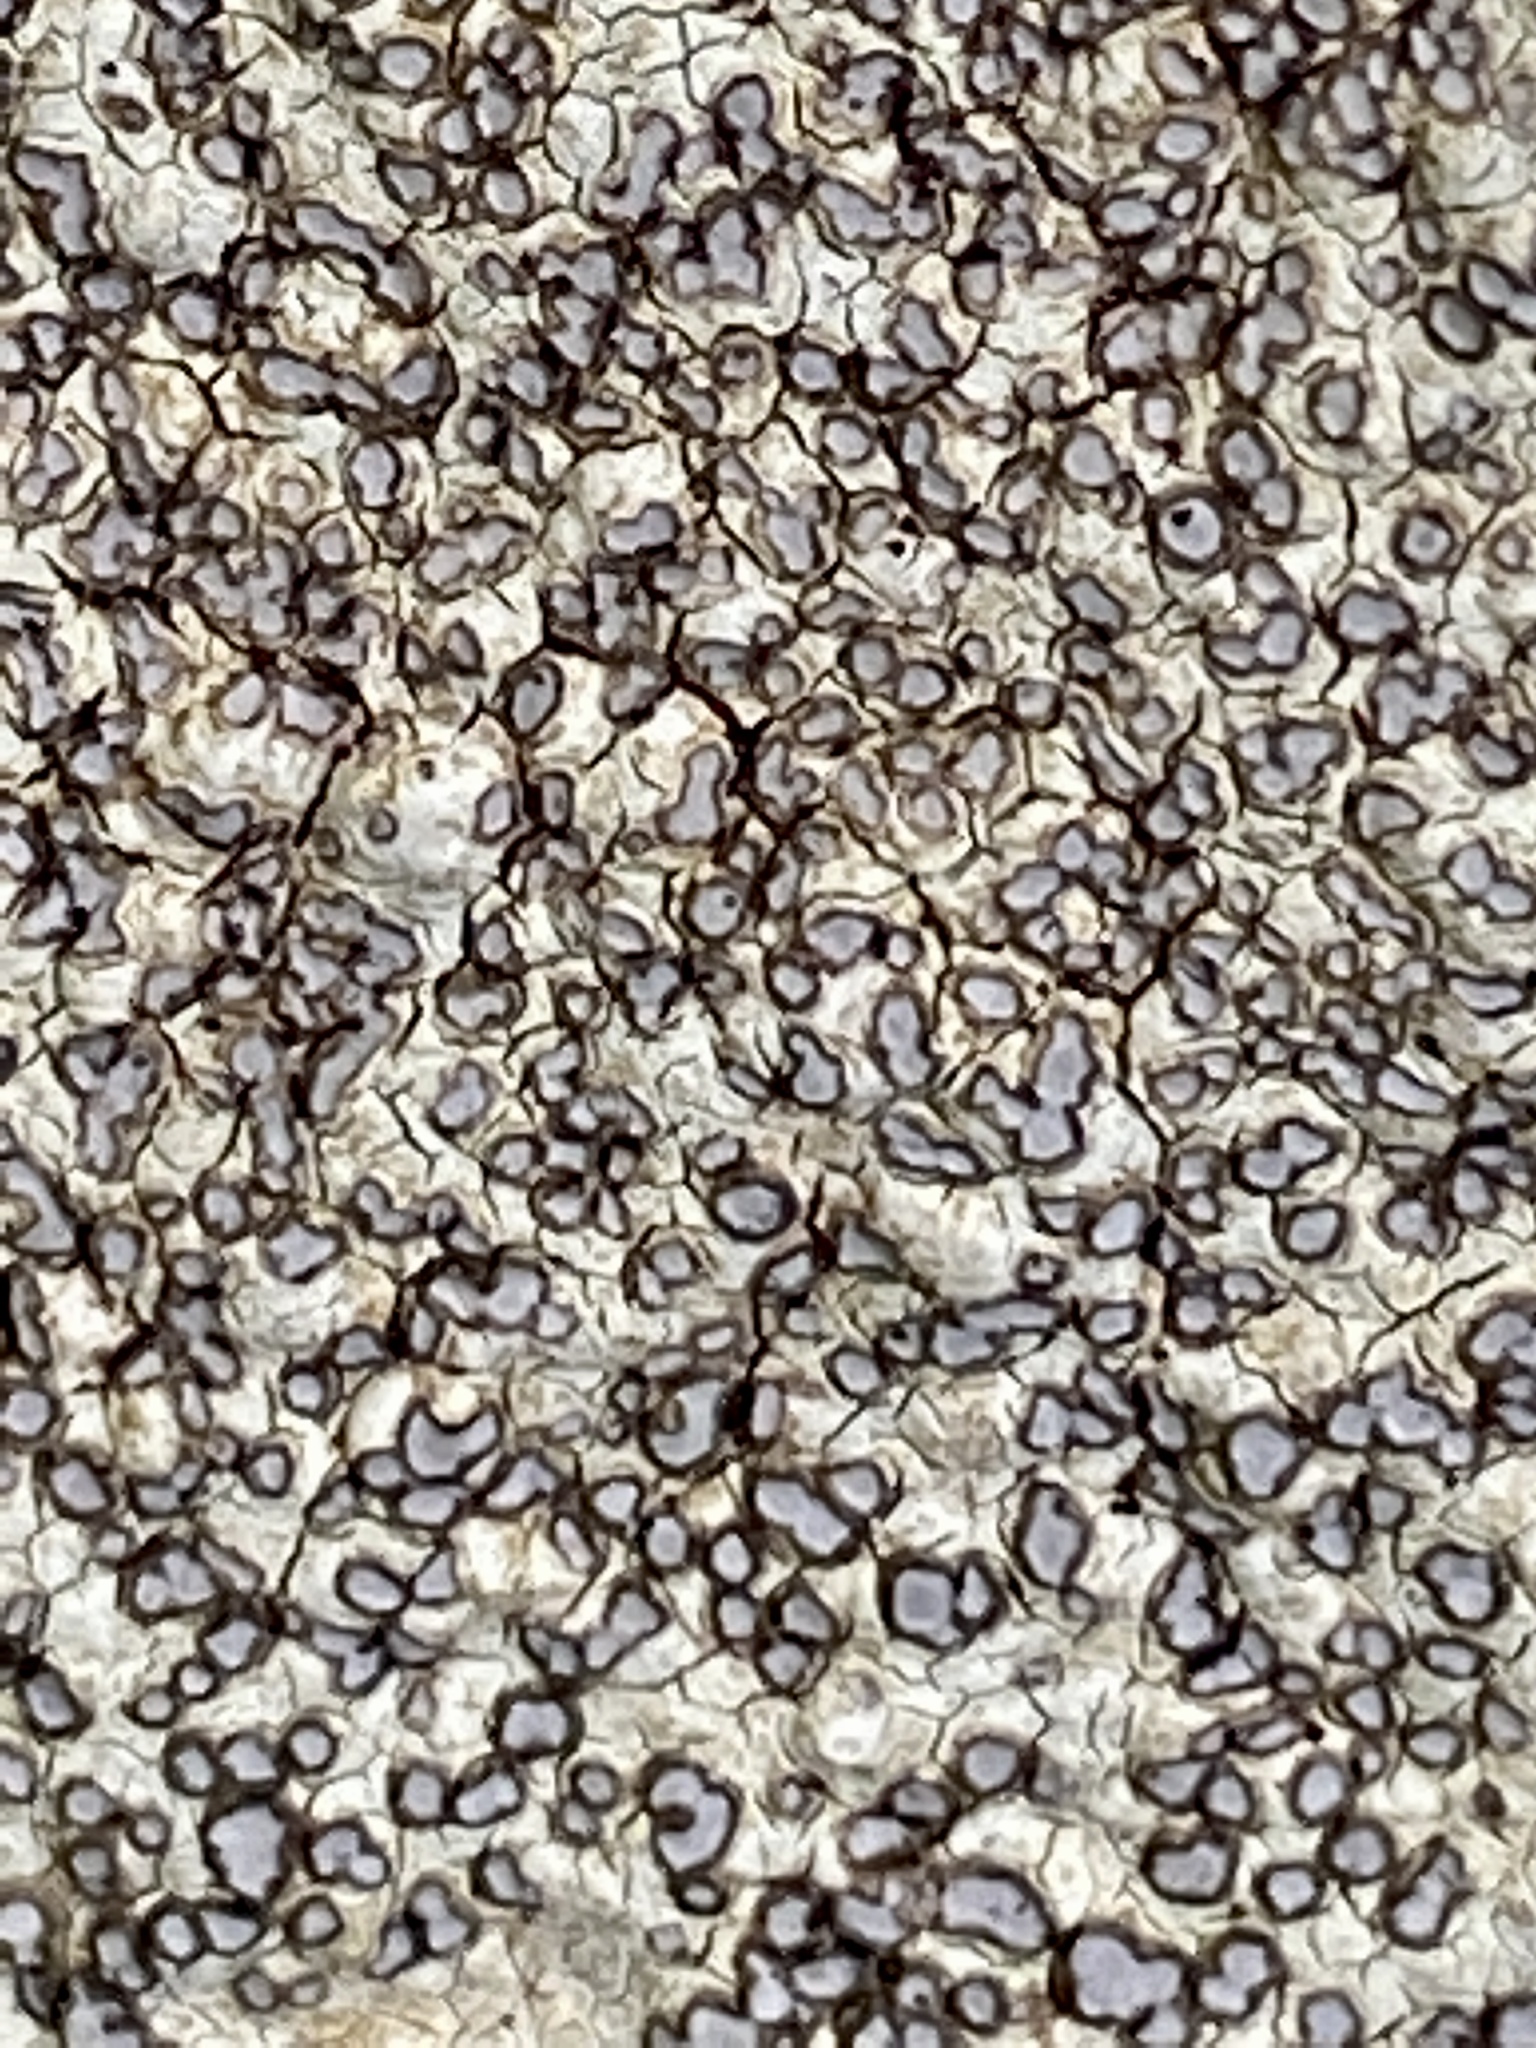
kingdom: Fungi
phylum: Ascomycota
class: Lecanoromycetes
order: Lecideales
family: Lecideaceae
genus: Porpidia
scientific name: Porpidia albocaerulescens
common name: Smokey-eyed boulder lichen
